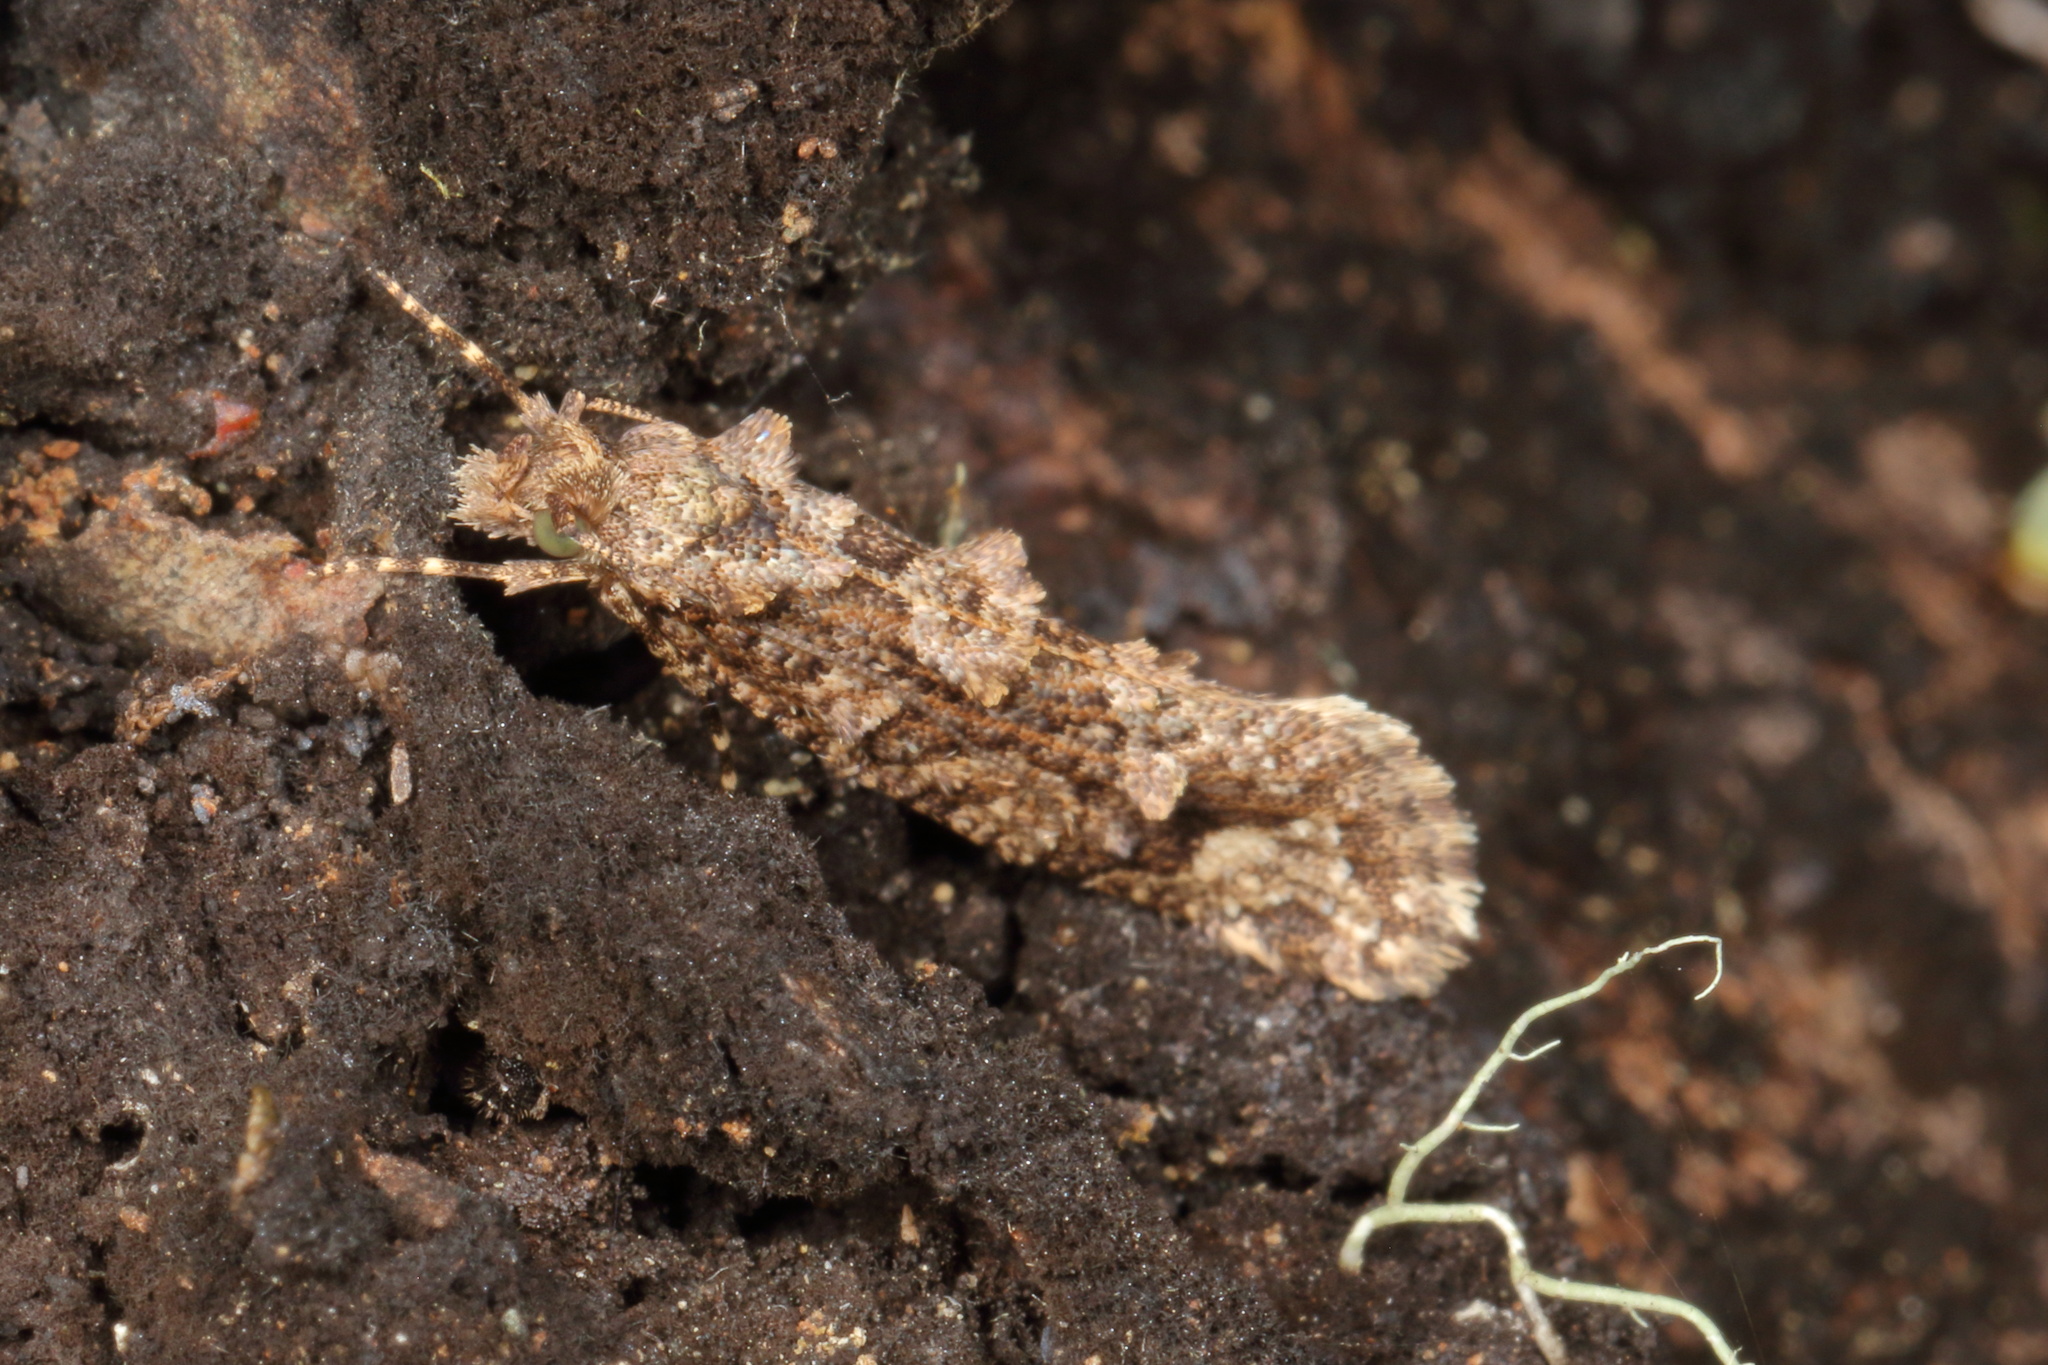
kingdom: Animalia
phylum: Arthropoda
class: Insecta
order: Lepidoptera
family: Tineidae
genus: Lysiphragma
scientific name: Lysiphragma epixyla
